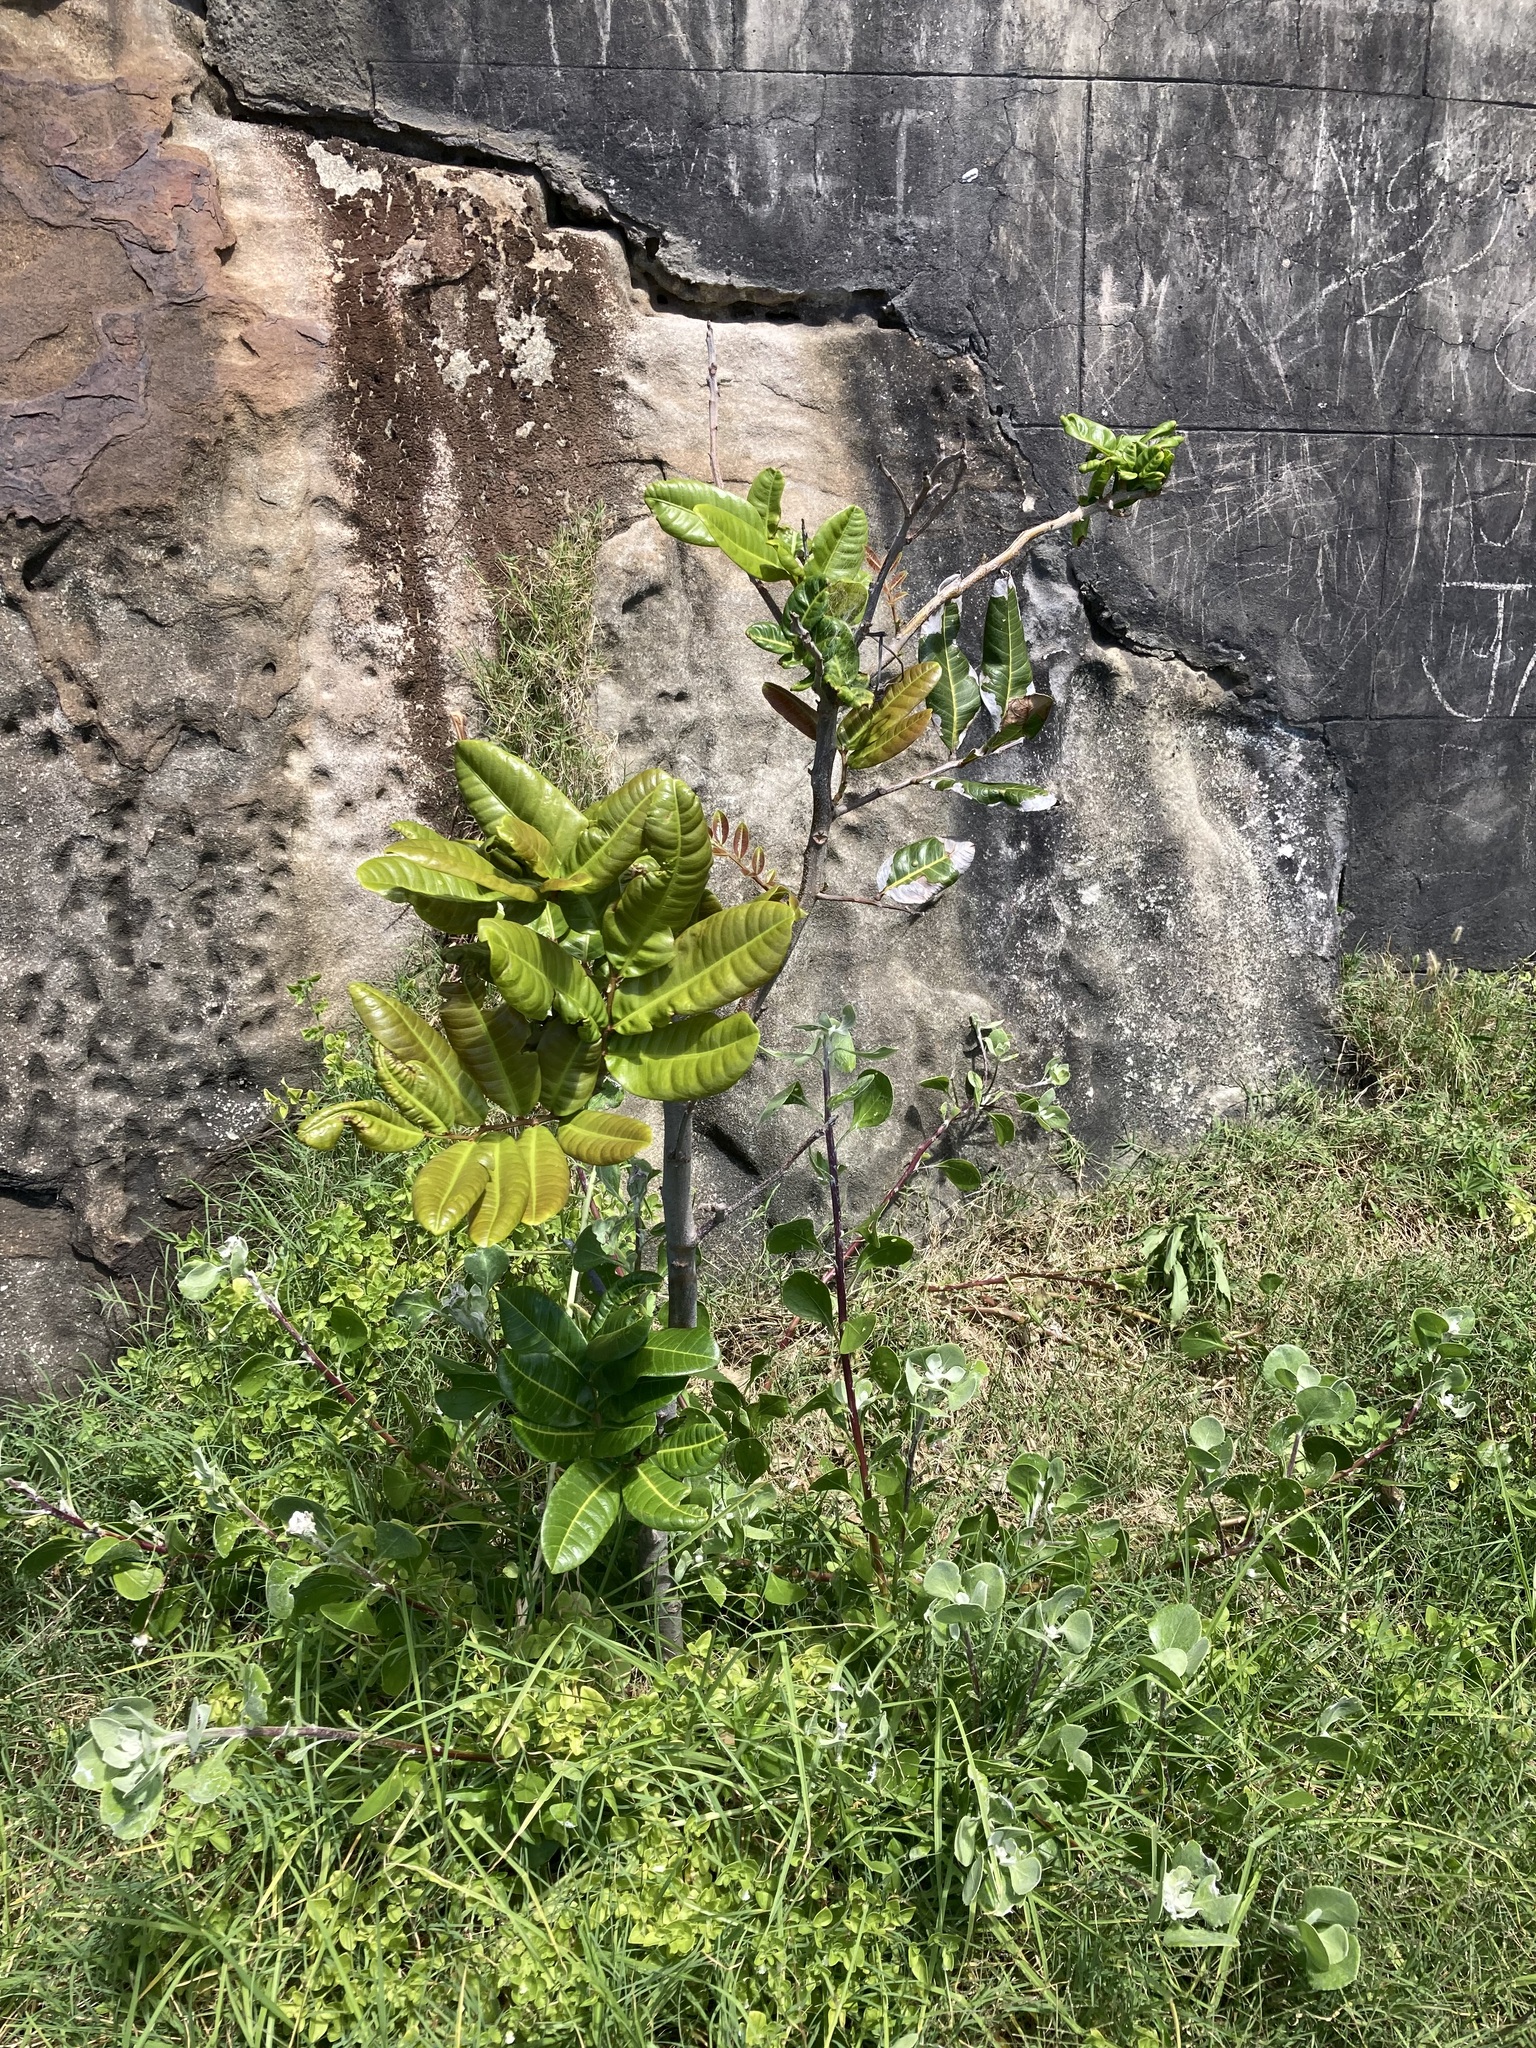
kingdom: Plantae
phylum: Tracheophyta
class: Magnoliopsida
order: Sapindales
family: Sapindaceae
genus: Cupaniopsis
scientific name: Cupaniopsis anacardioides
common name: Carrotwood
